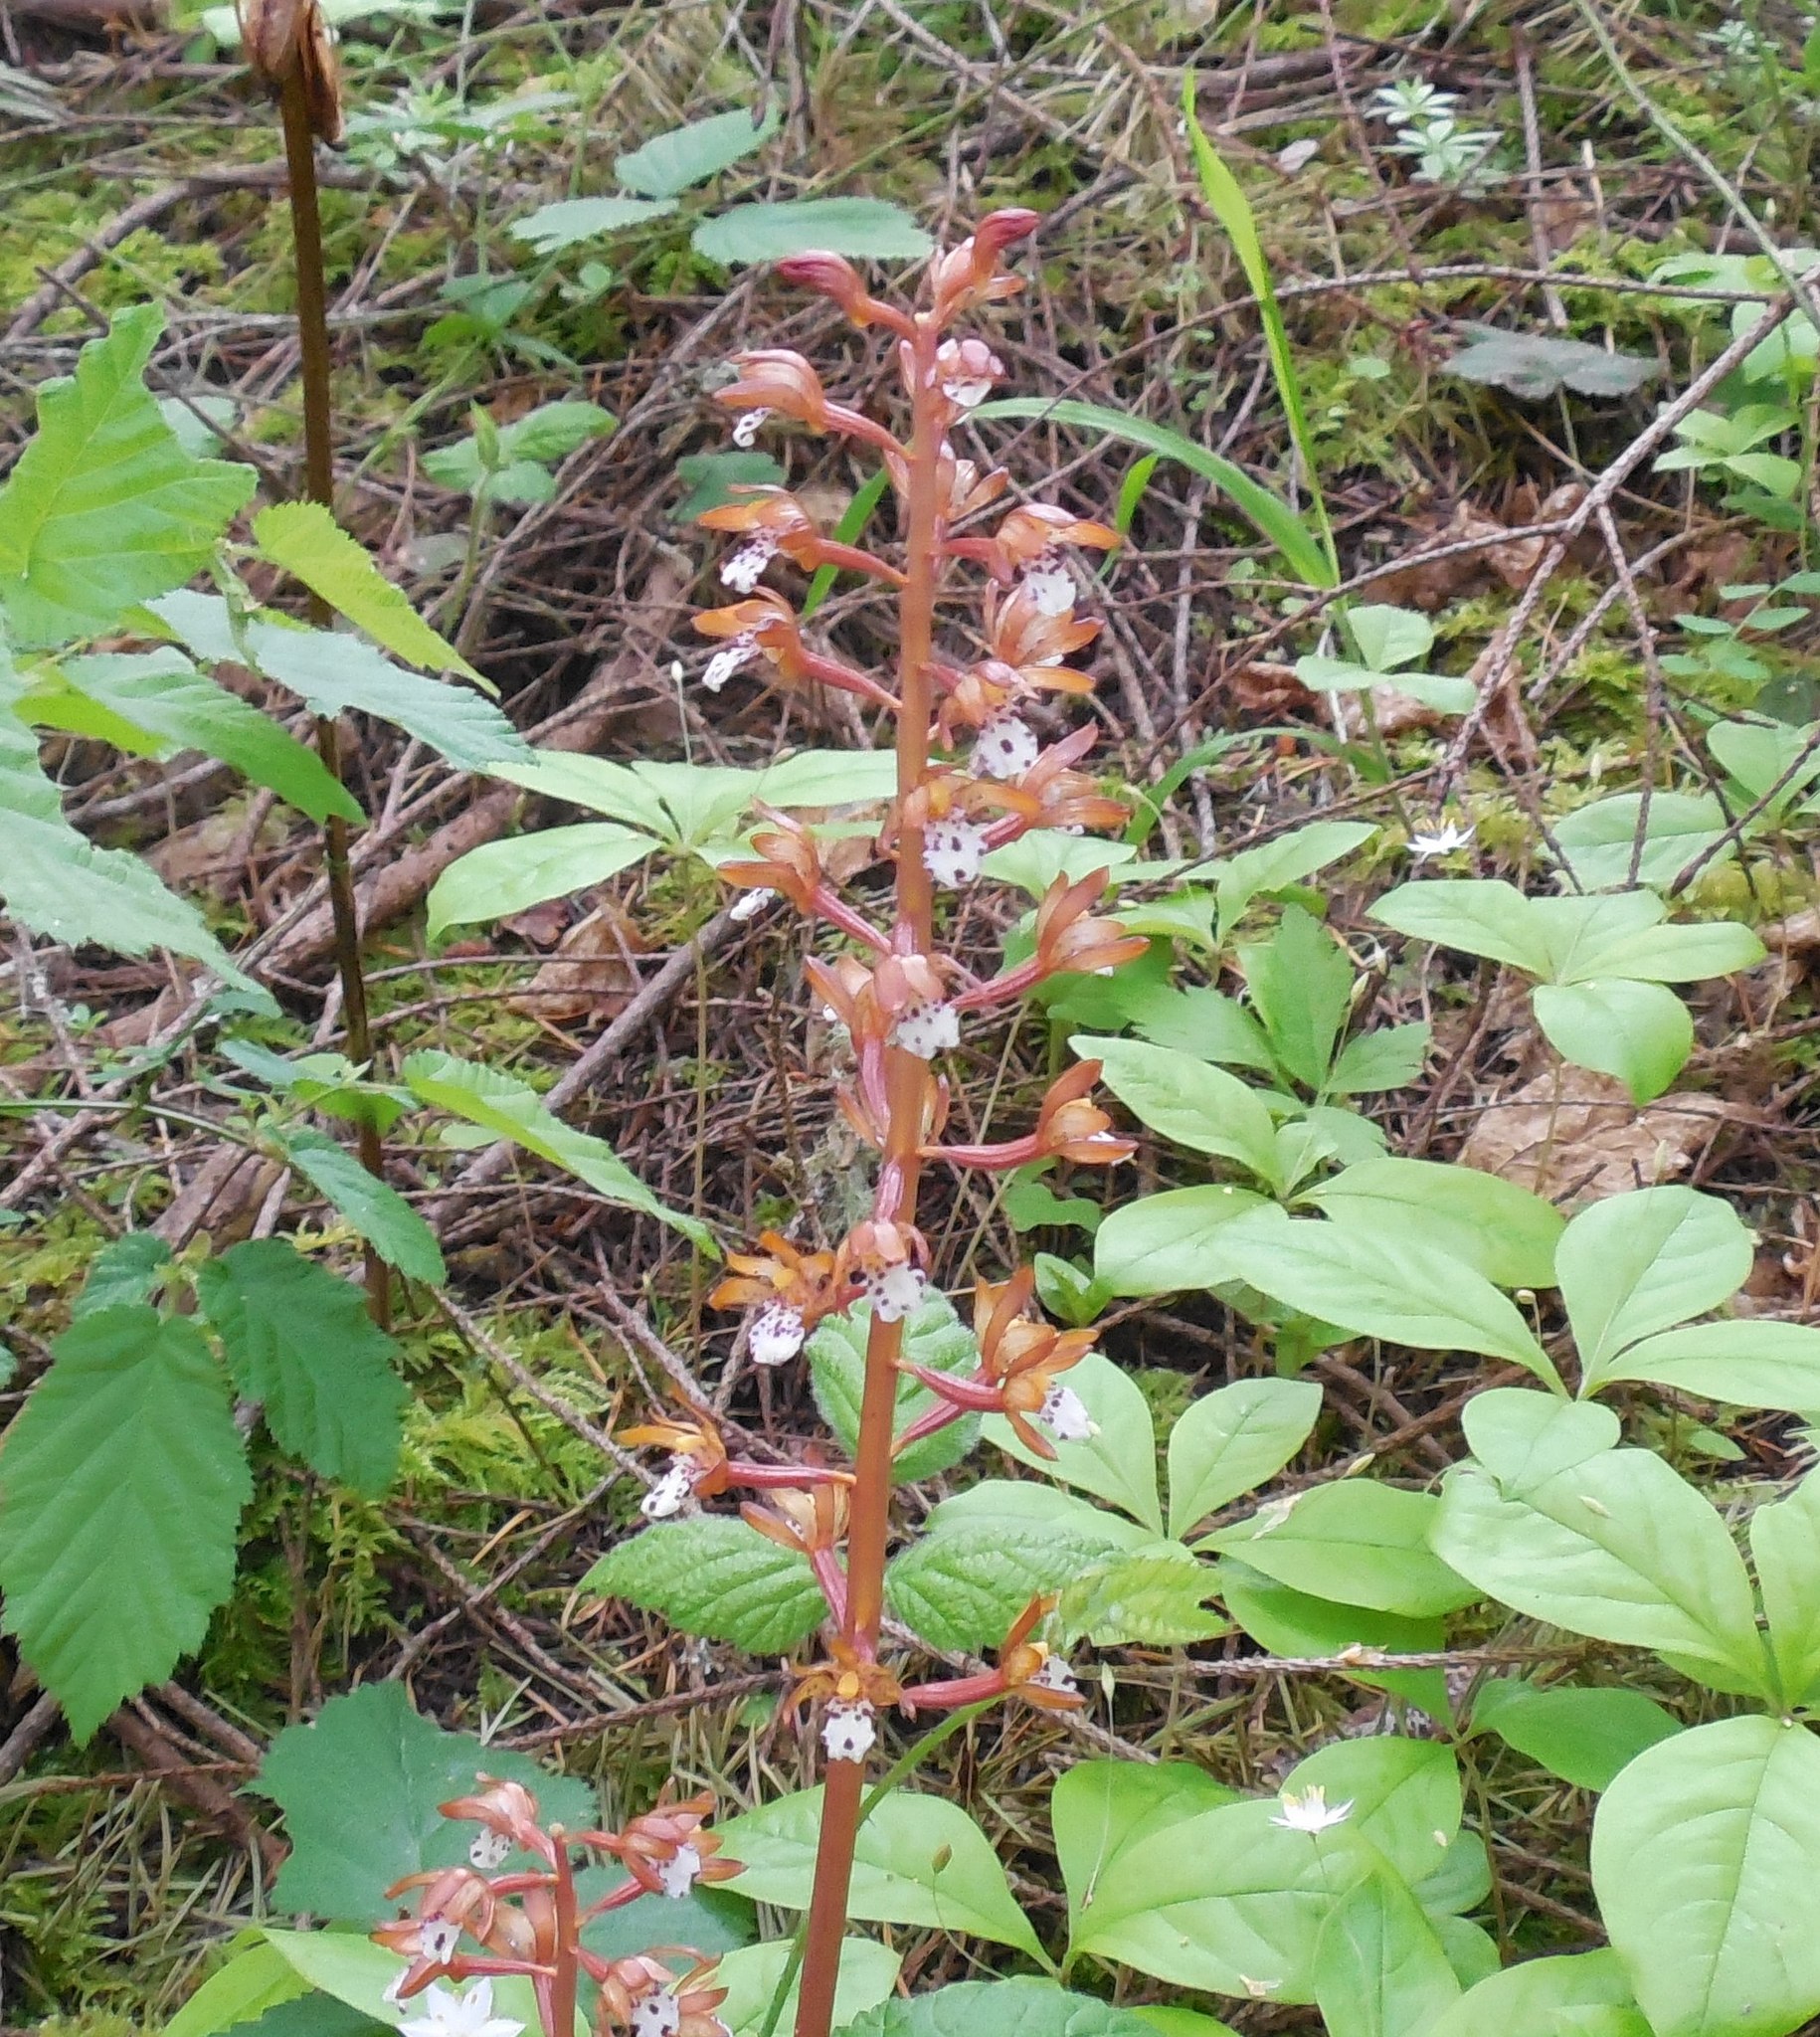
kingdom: Plantae
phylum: Tracheophyta
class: Liliopsida
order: Asparagales
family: Orchidaceae
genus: Corallorhiza
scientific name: Corallorhiza maculata
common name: Spotted coralroot
